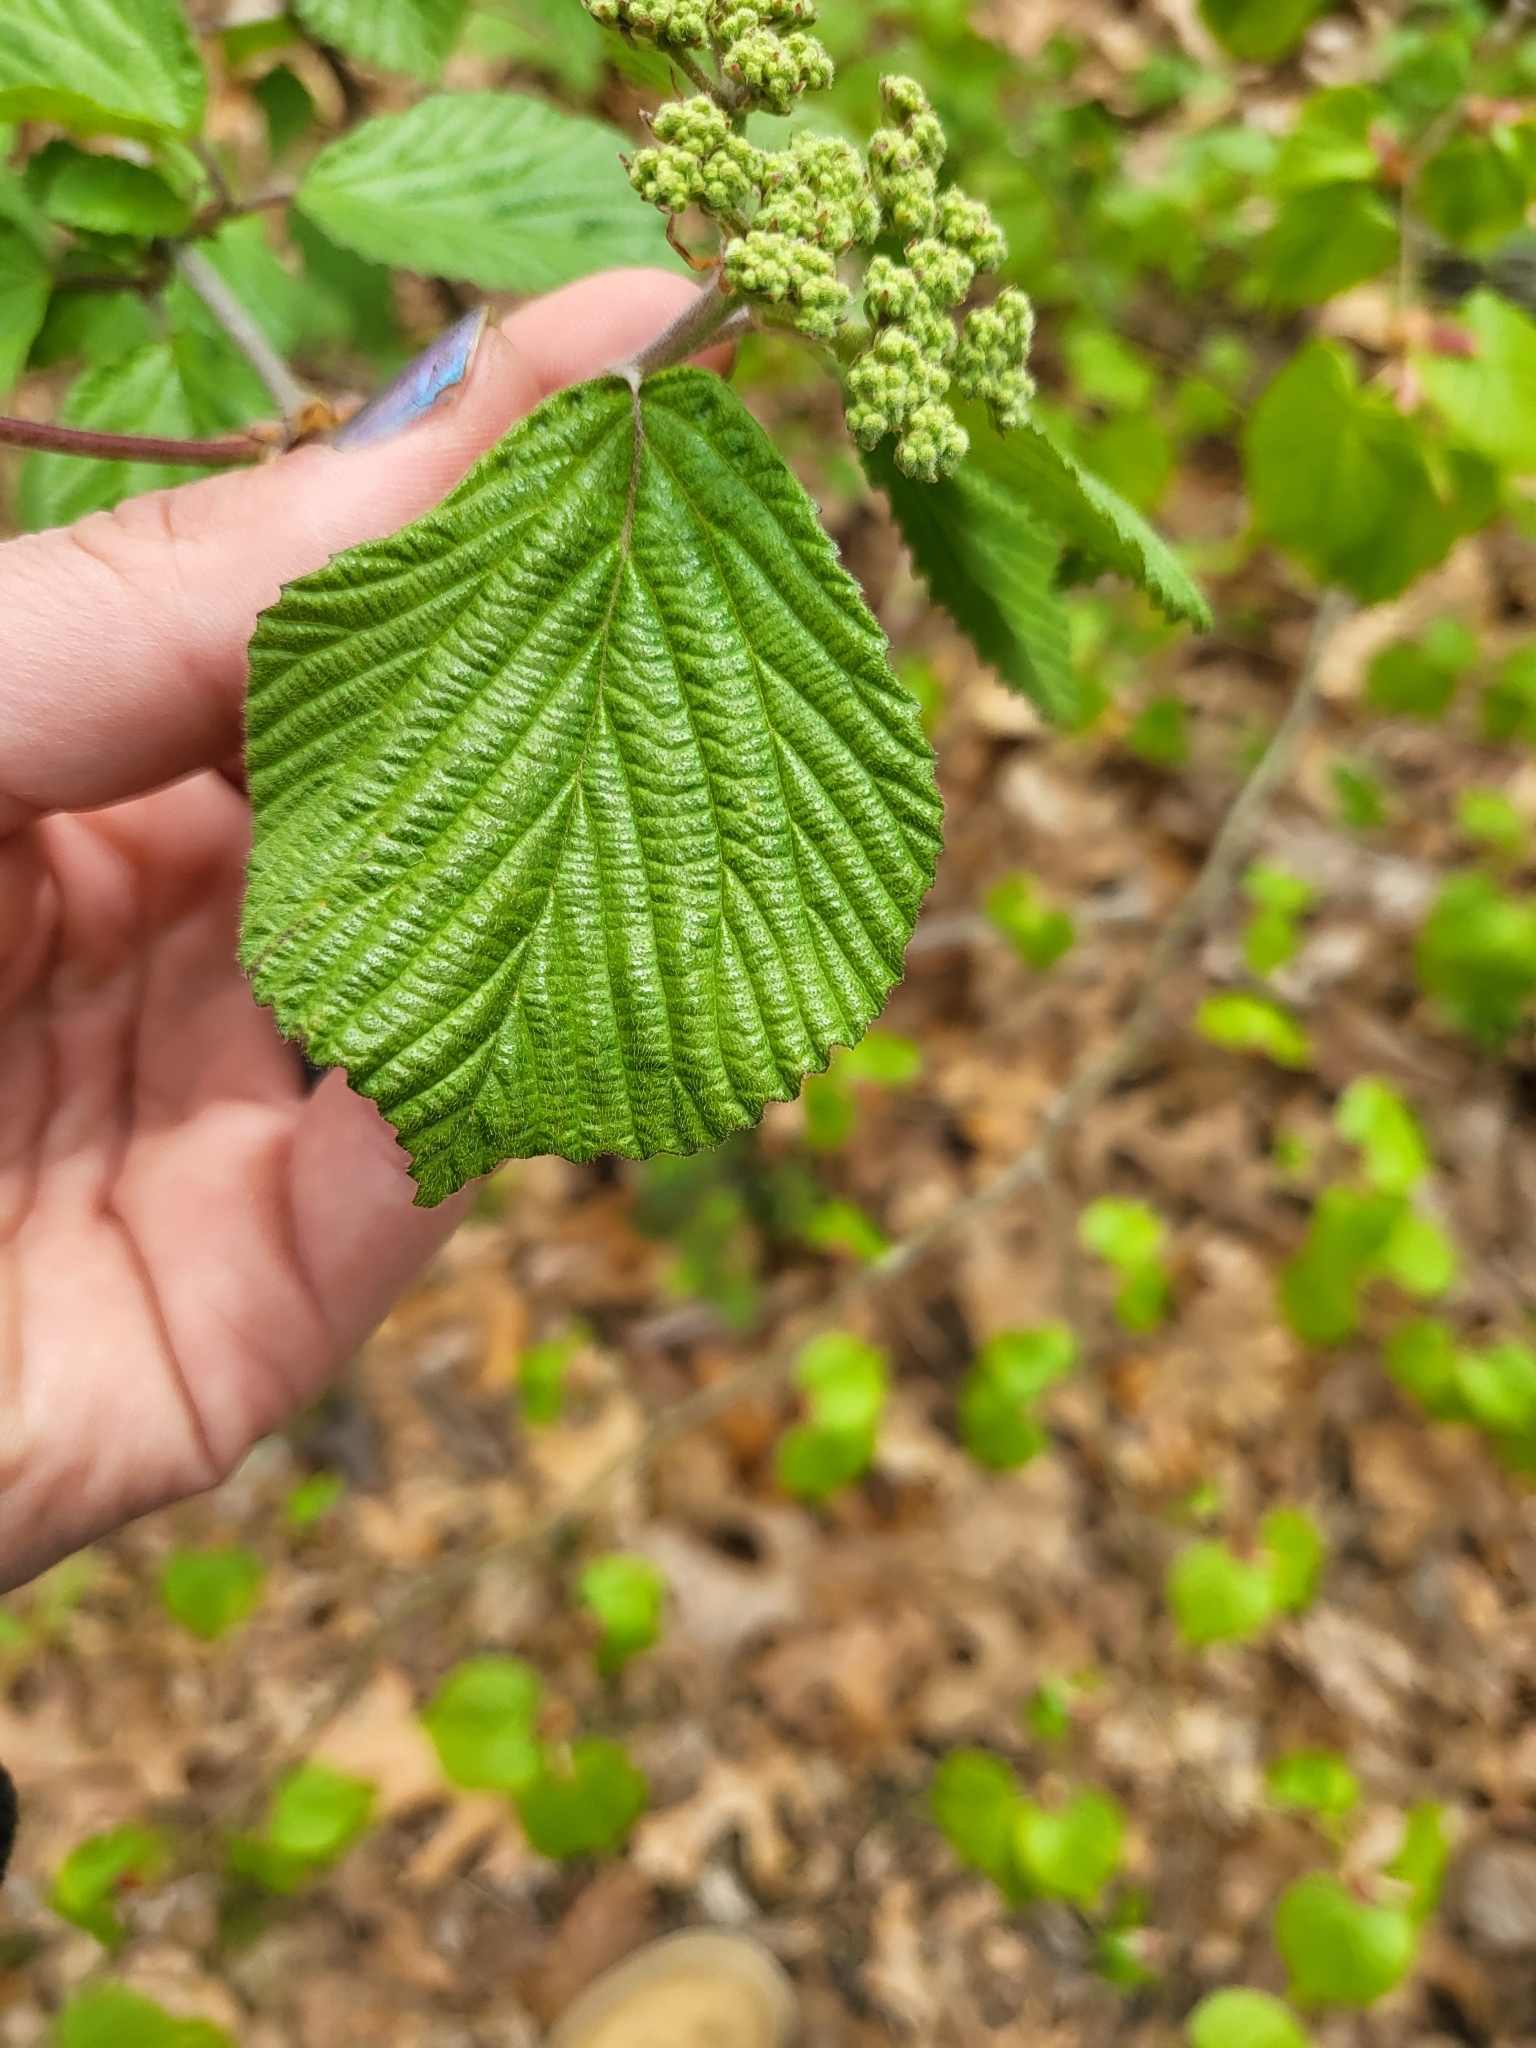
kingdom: Plantae
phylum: Tracheophyta
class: Magnoliopsida
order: Dipsacales
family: Viburnaceae
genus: Viburnum
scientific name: Viburnum dilatatum
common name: Linden arrowwood
